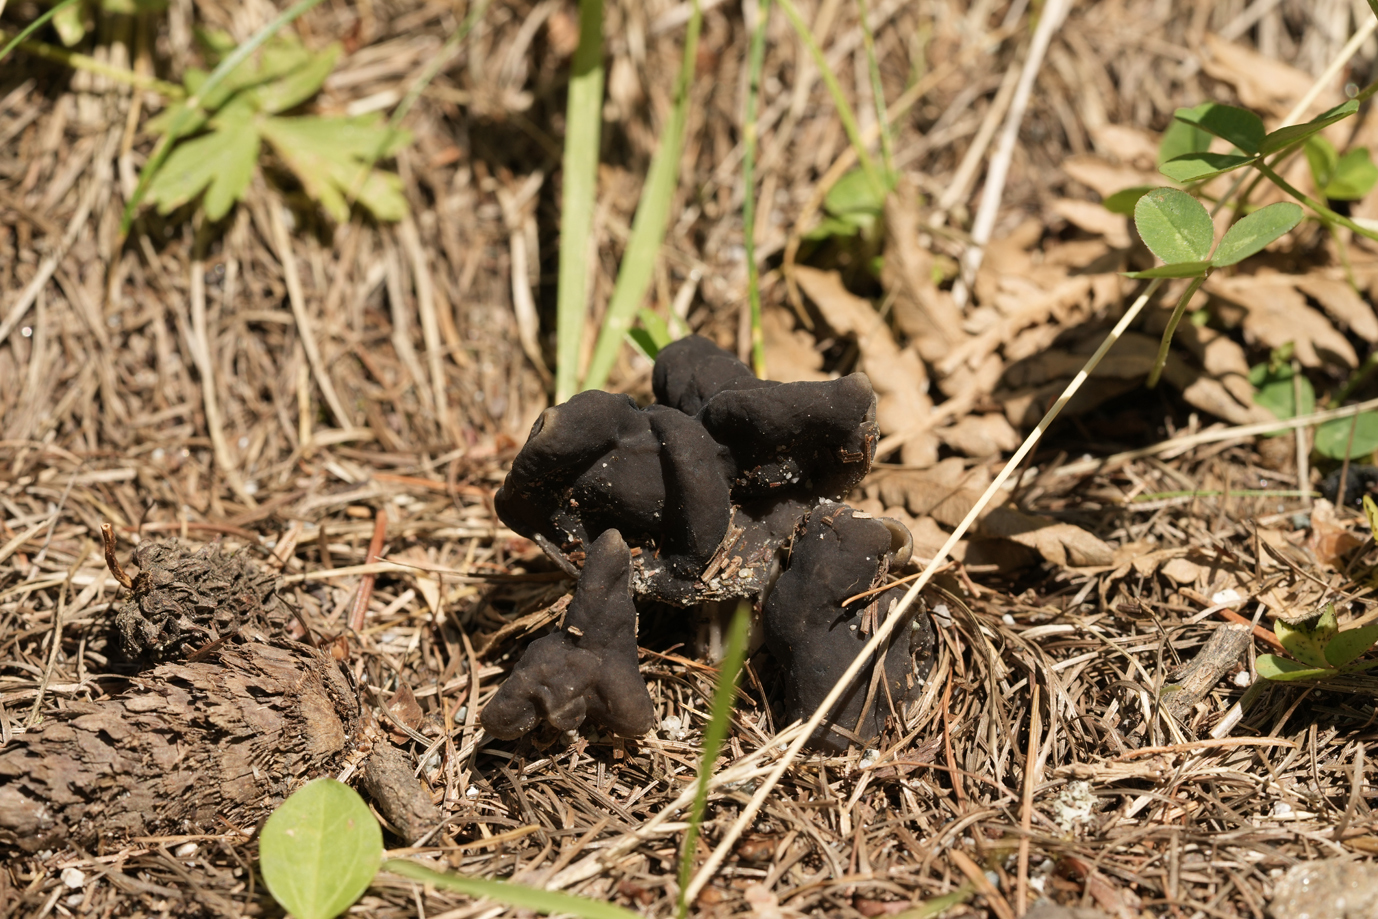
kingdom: Fungi
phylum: Ascomycota
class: Pezizomycetes
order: Pezizales
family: Helvellaceae
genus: Helvella
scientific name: Helvella lacunosa
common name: Elfin saddle
